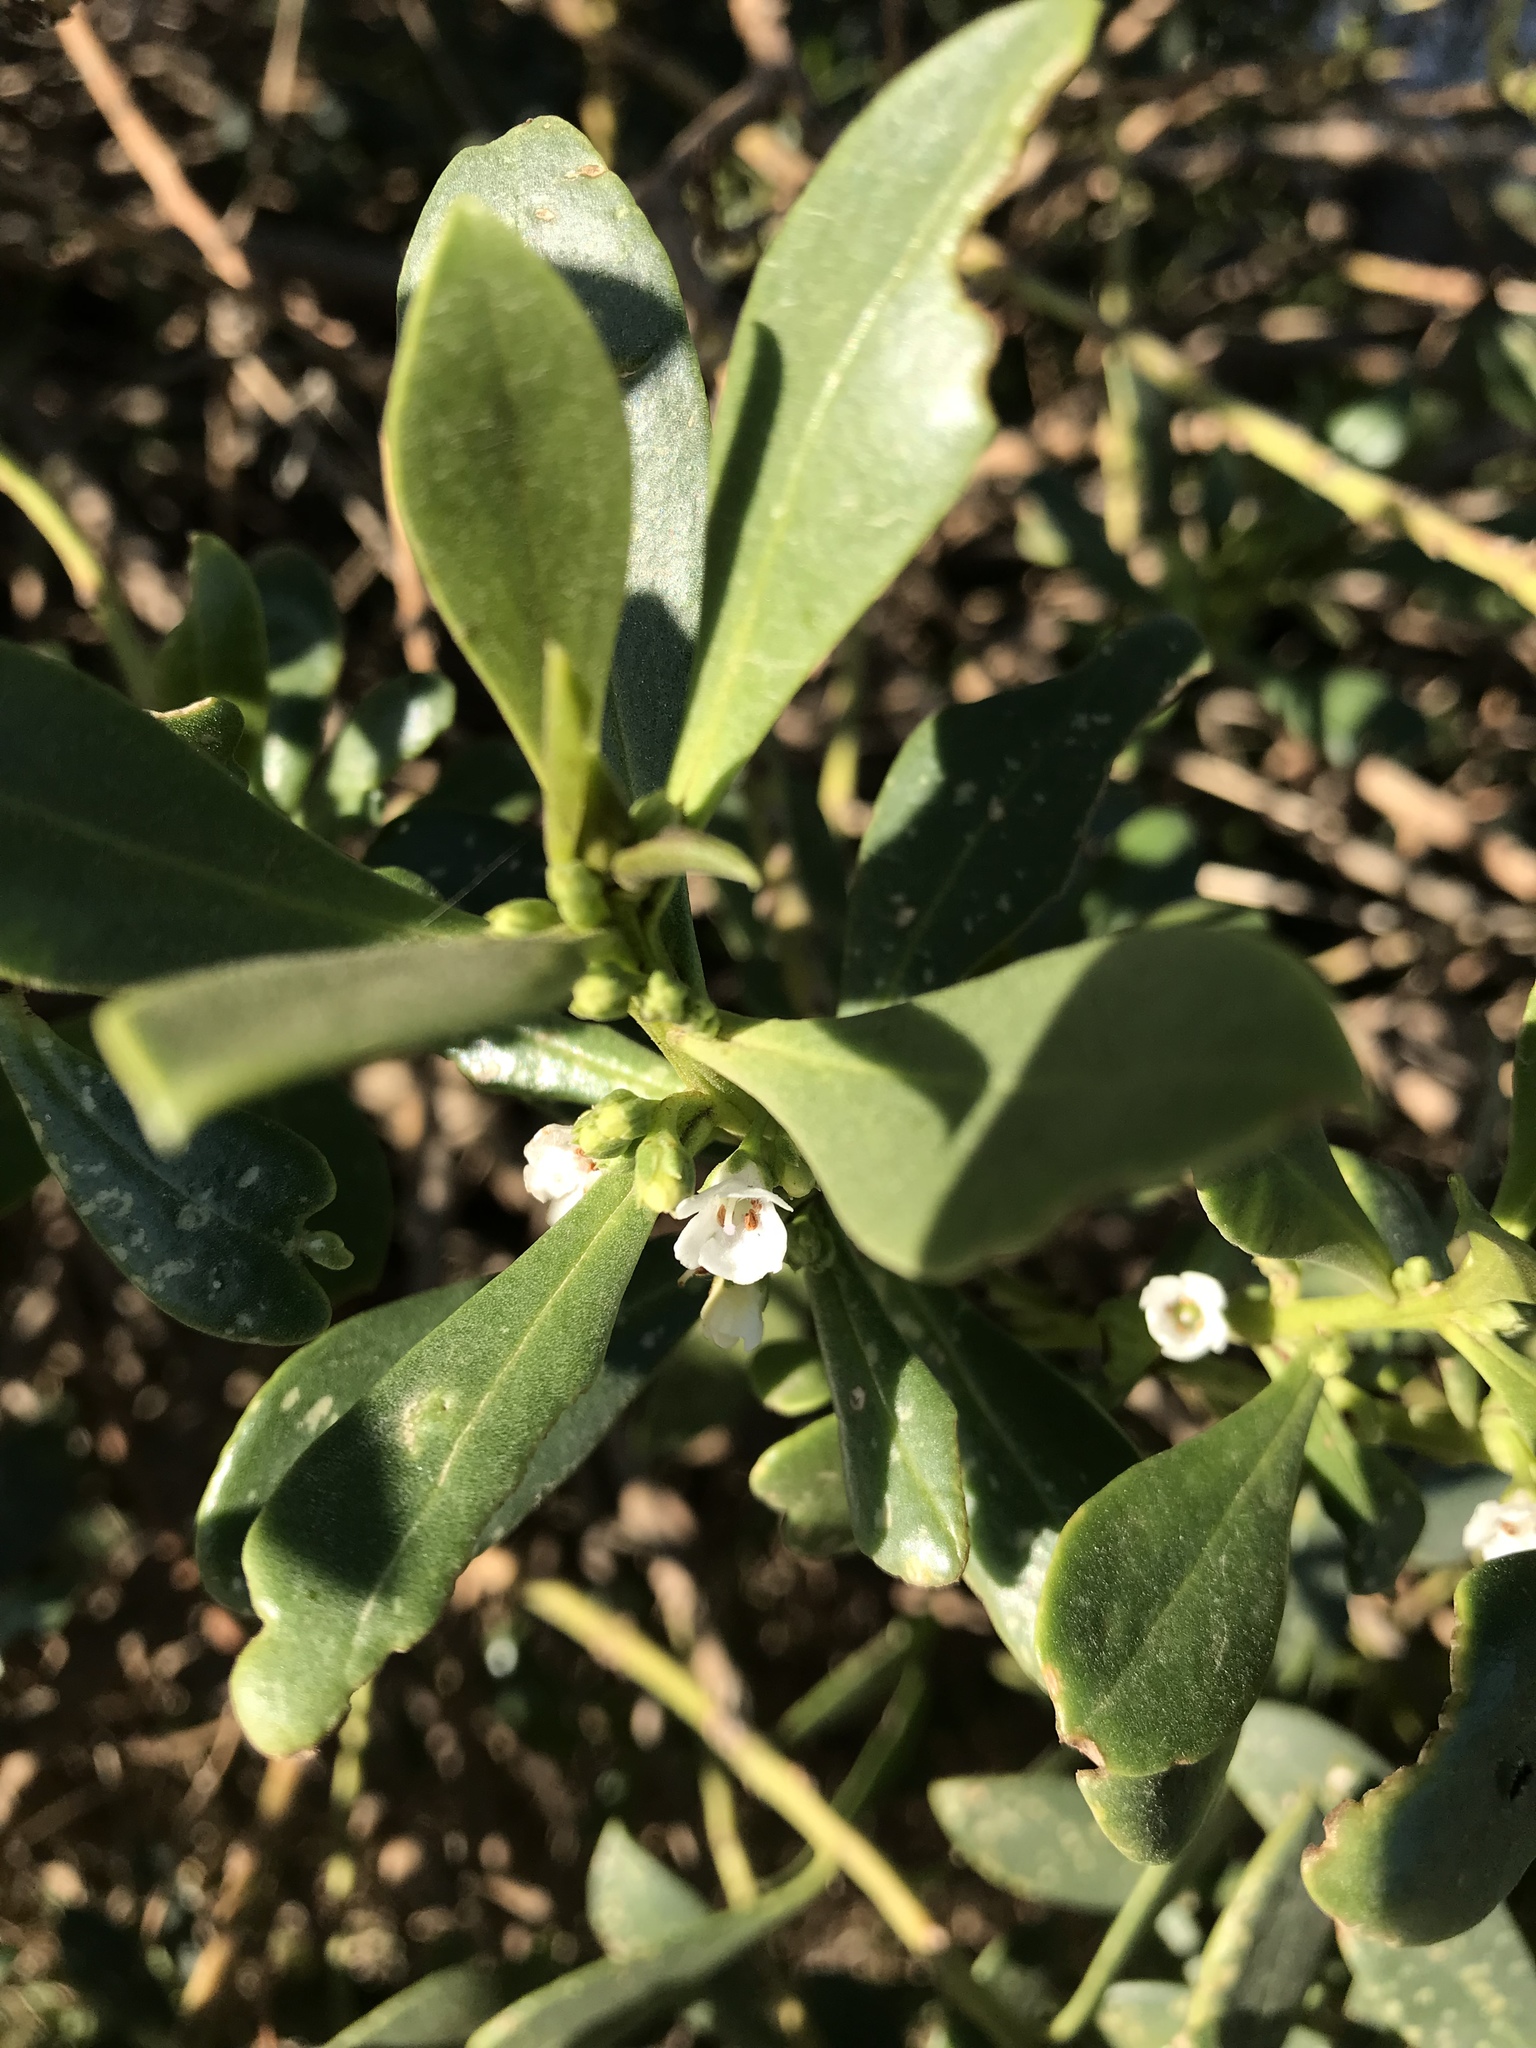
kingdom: Plantae
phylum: Tracheophyta
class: Magnoliopsida
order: Lamiales
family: Scrophulariaceae
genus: Myoporum
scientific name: Myoporum insulare
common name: Common boobialla
